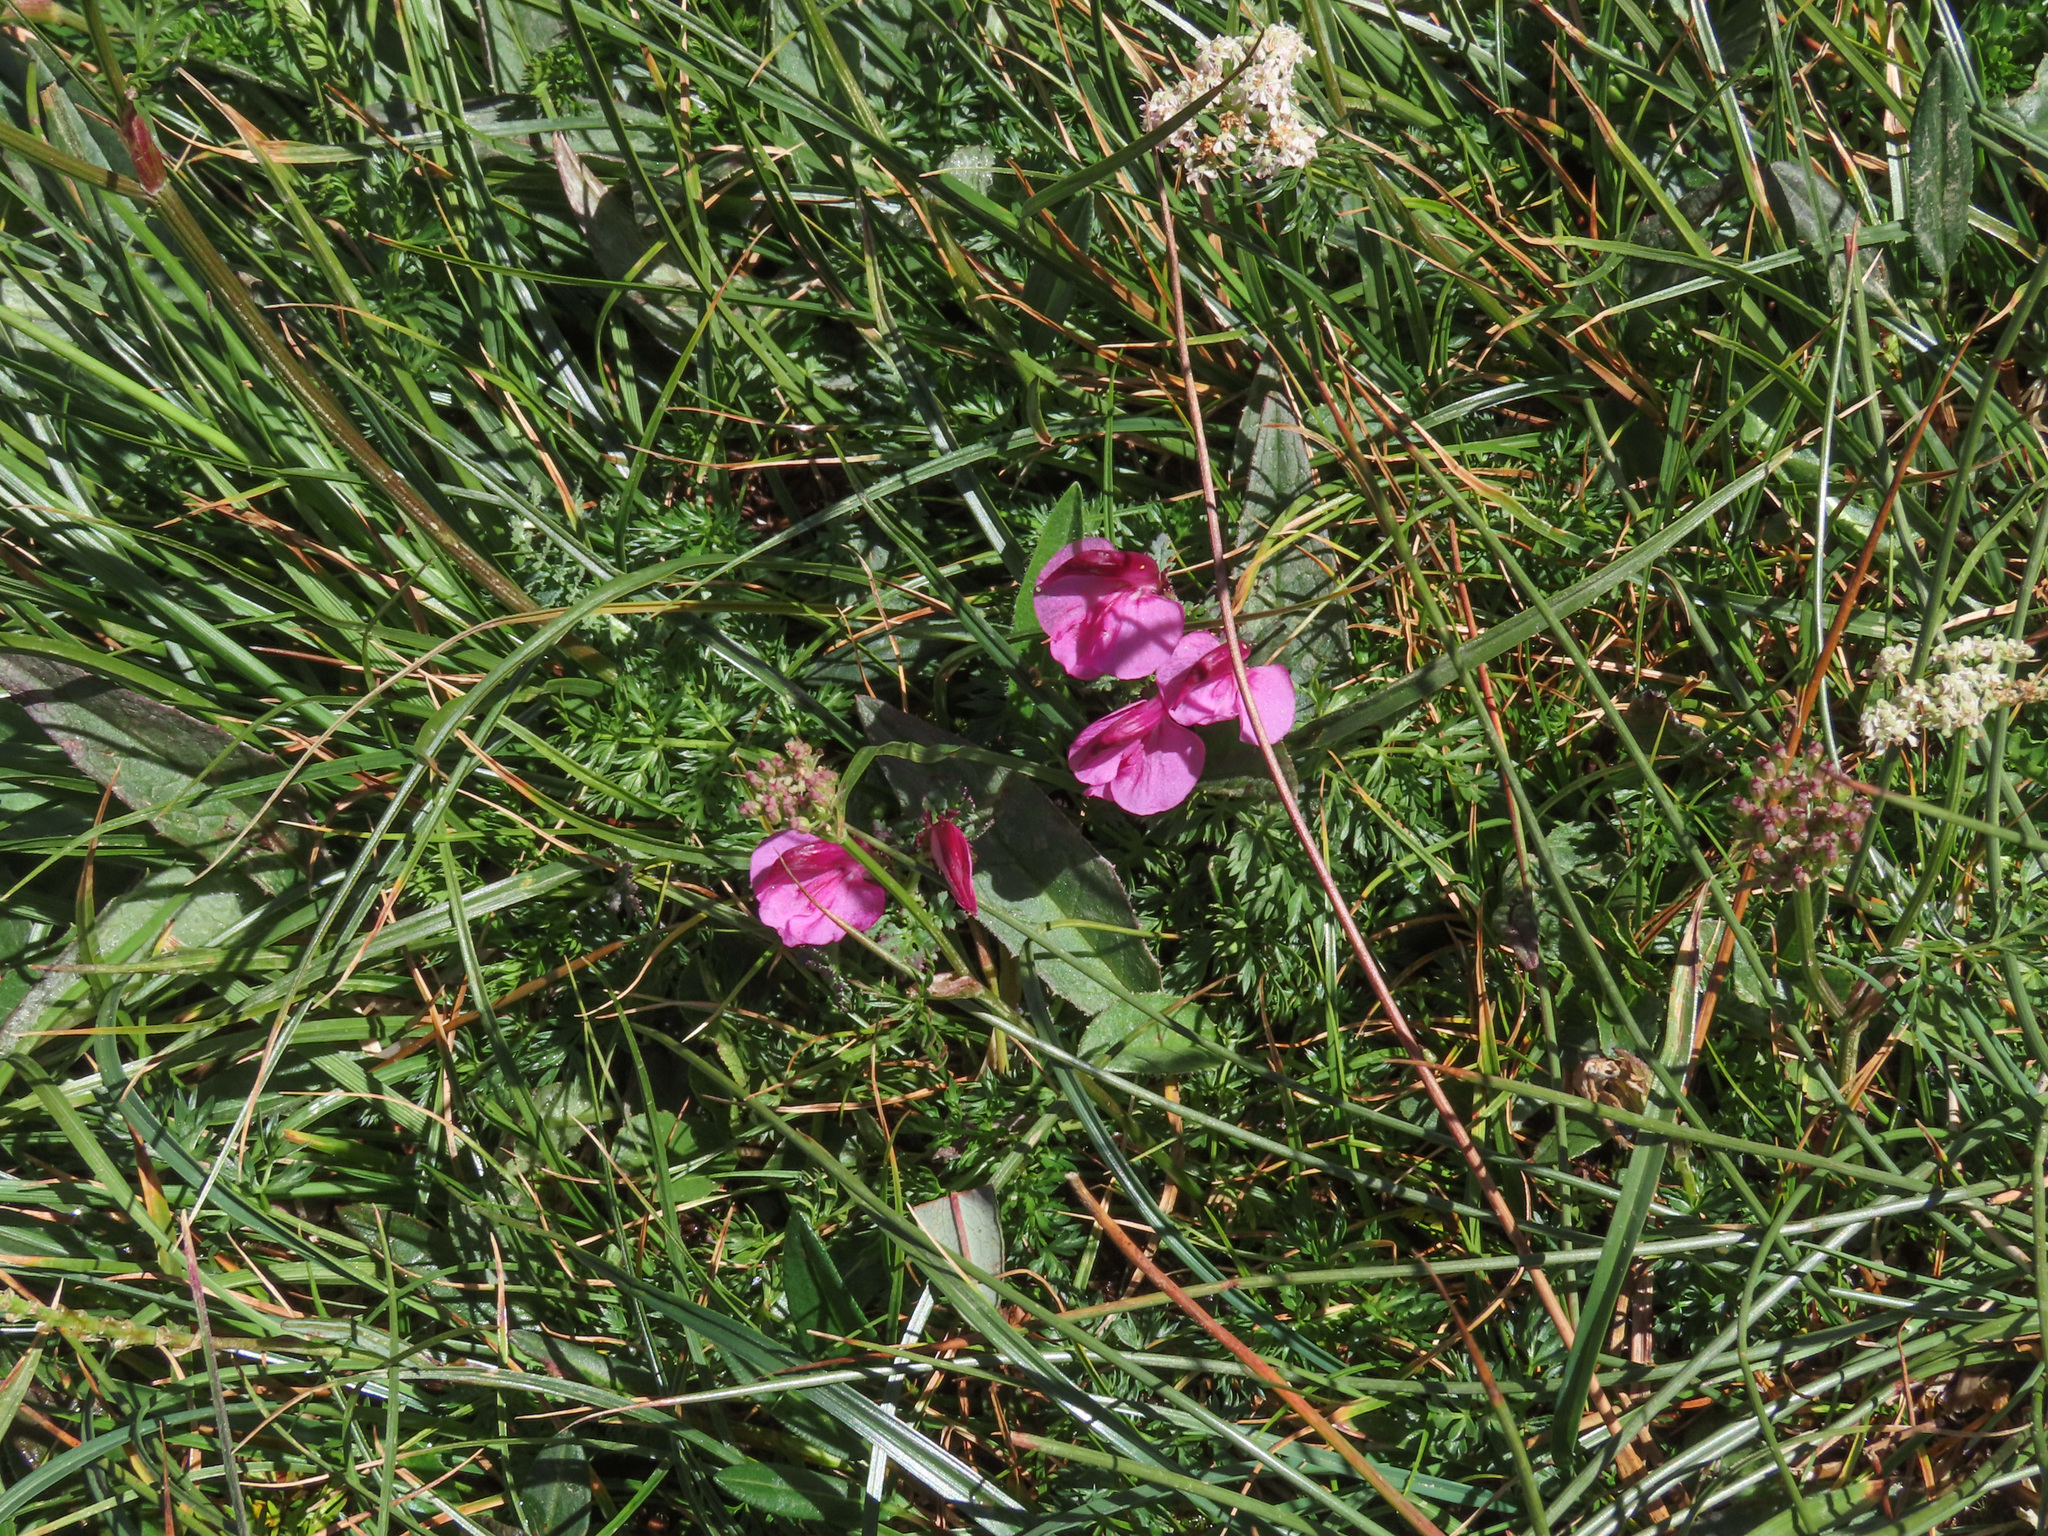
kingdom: Plantae
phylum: Tracheophyta
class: Magnoliopsida
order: Lamiales
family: Orobanchaceae
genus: Pedicularis
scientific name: Pedicularis kerneri
